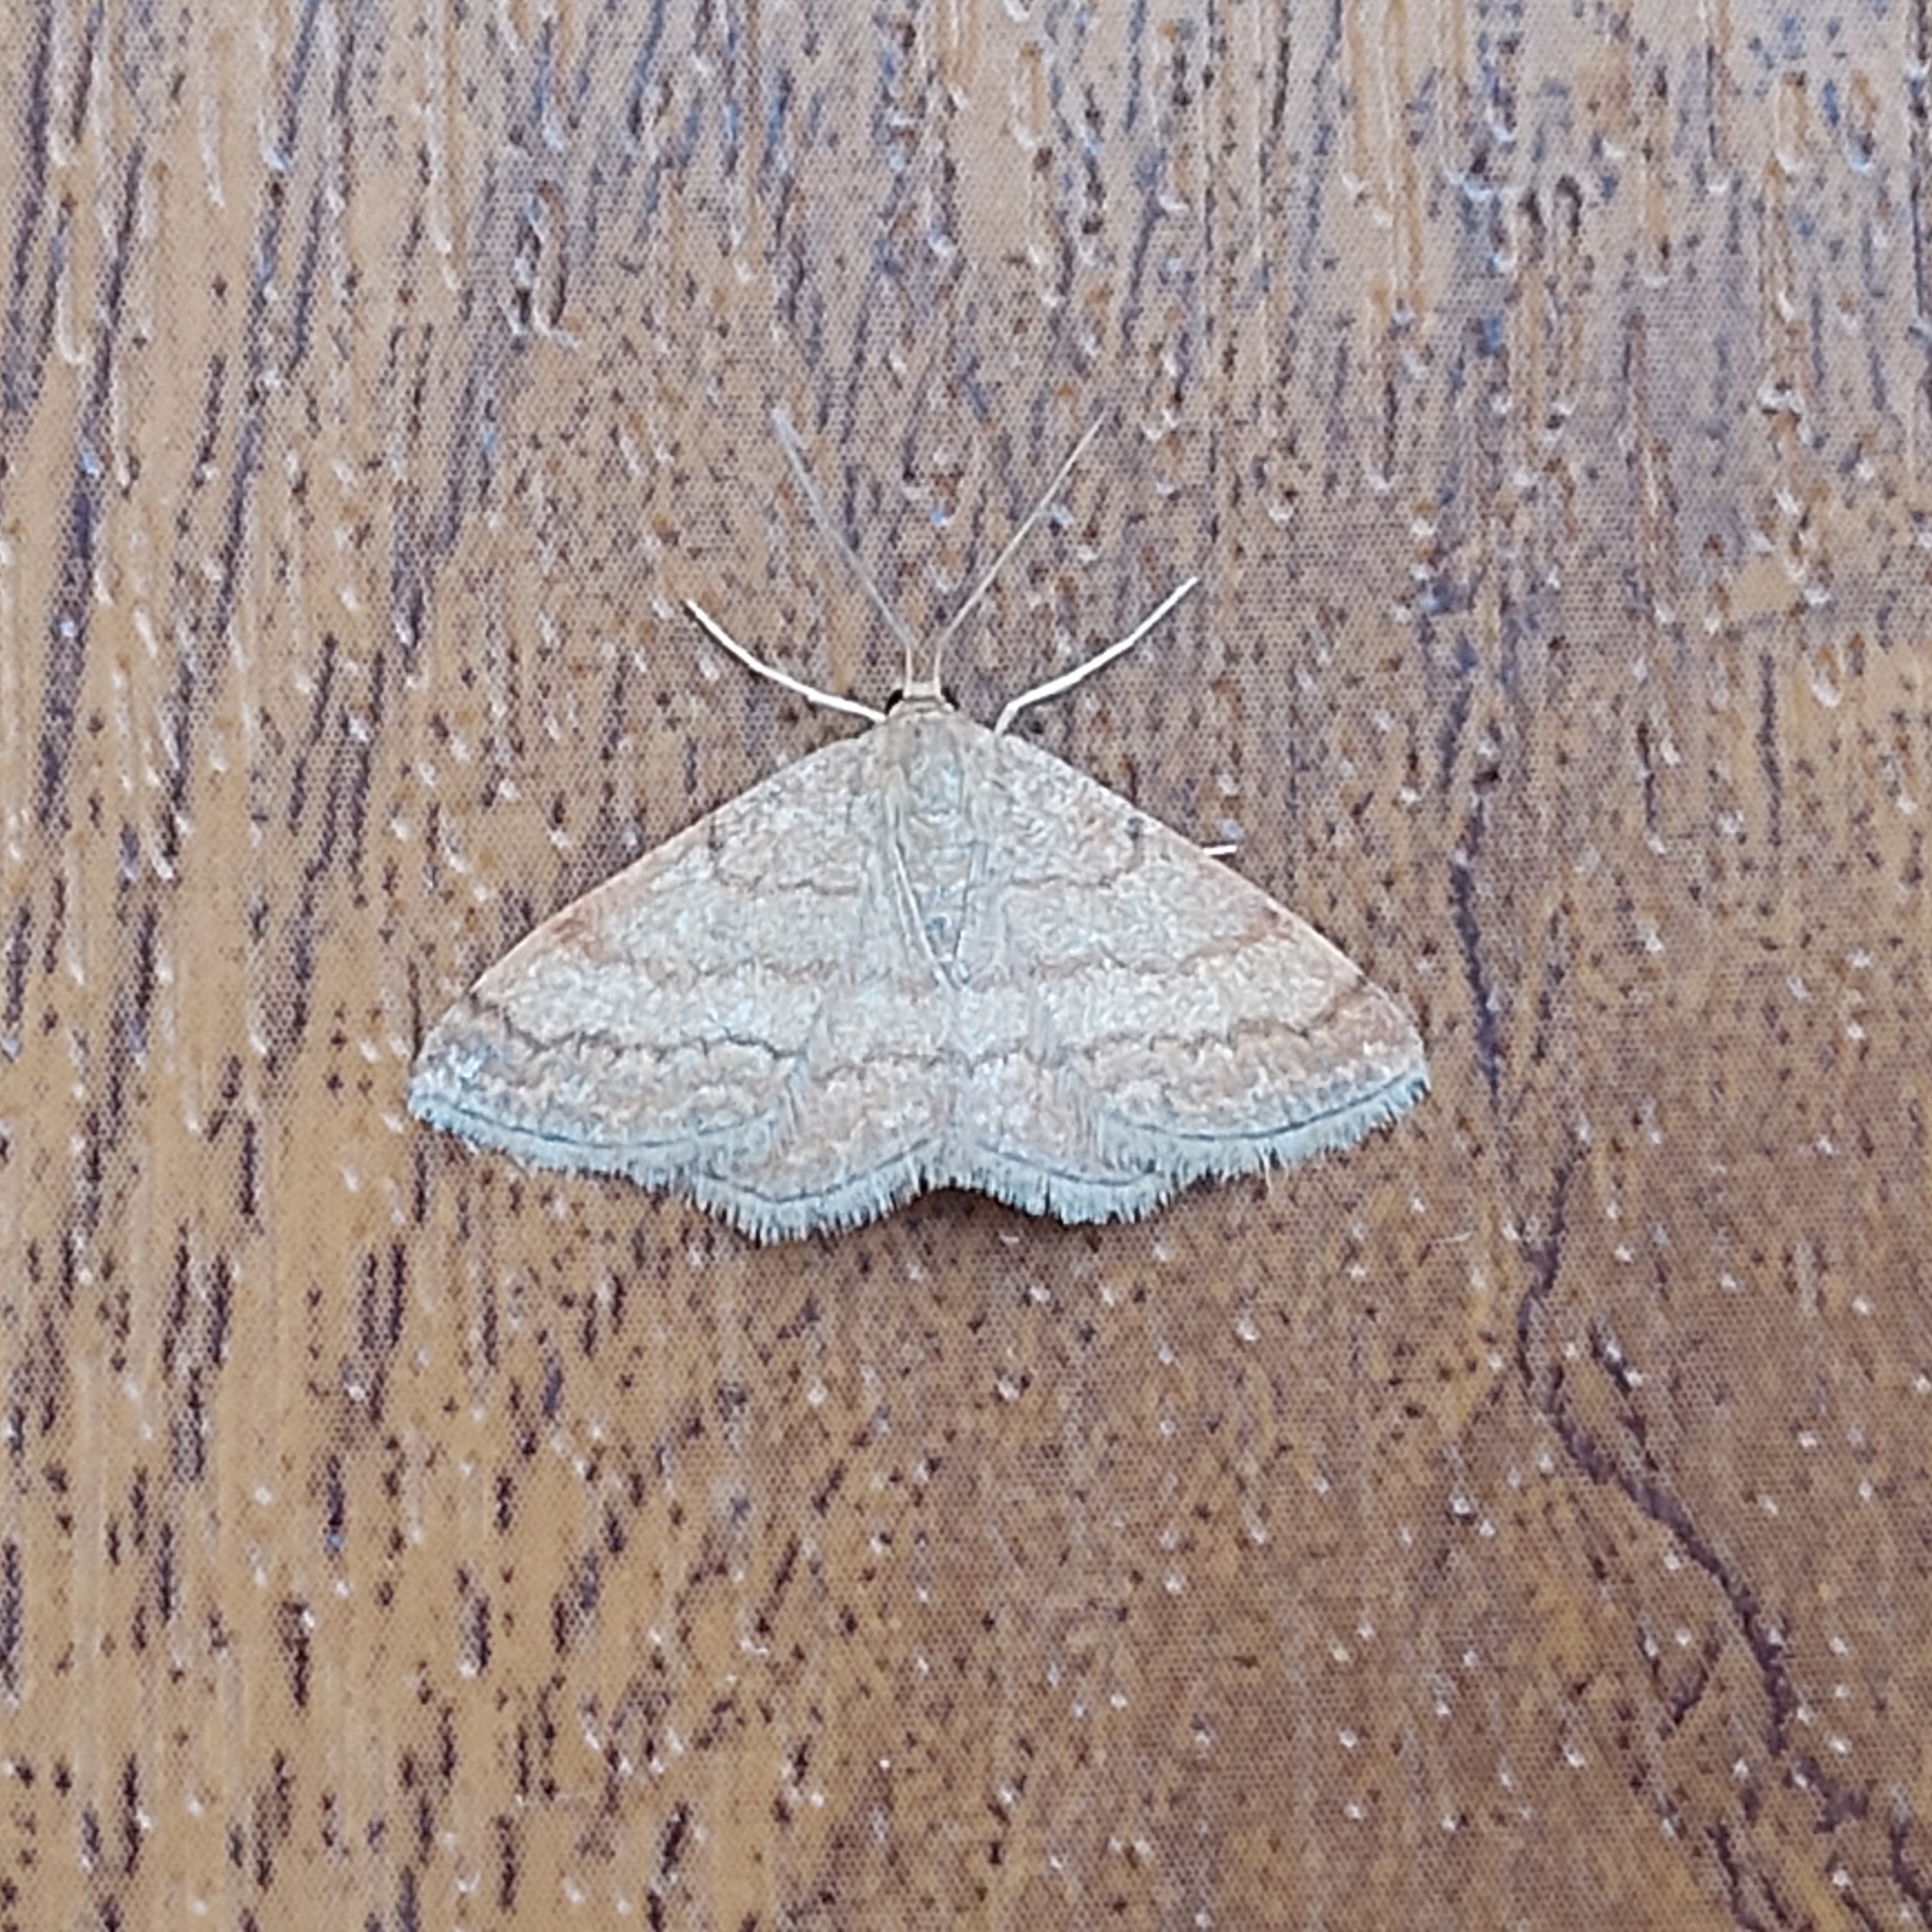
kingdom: Animalia
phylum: Arthropoda
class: Insecta
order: Lepidoptera
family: Geometridae
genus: Scopula
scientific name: Scopula rubiginata
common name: Tawny wave
